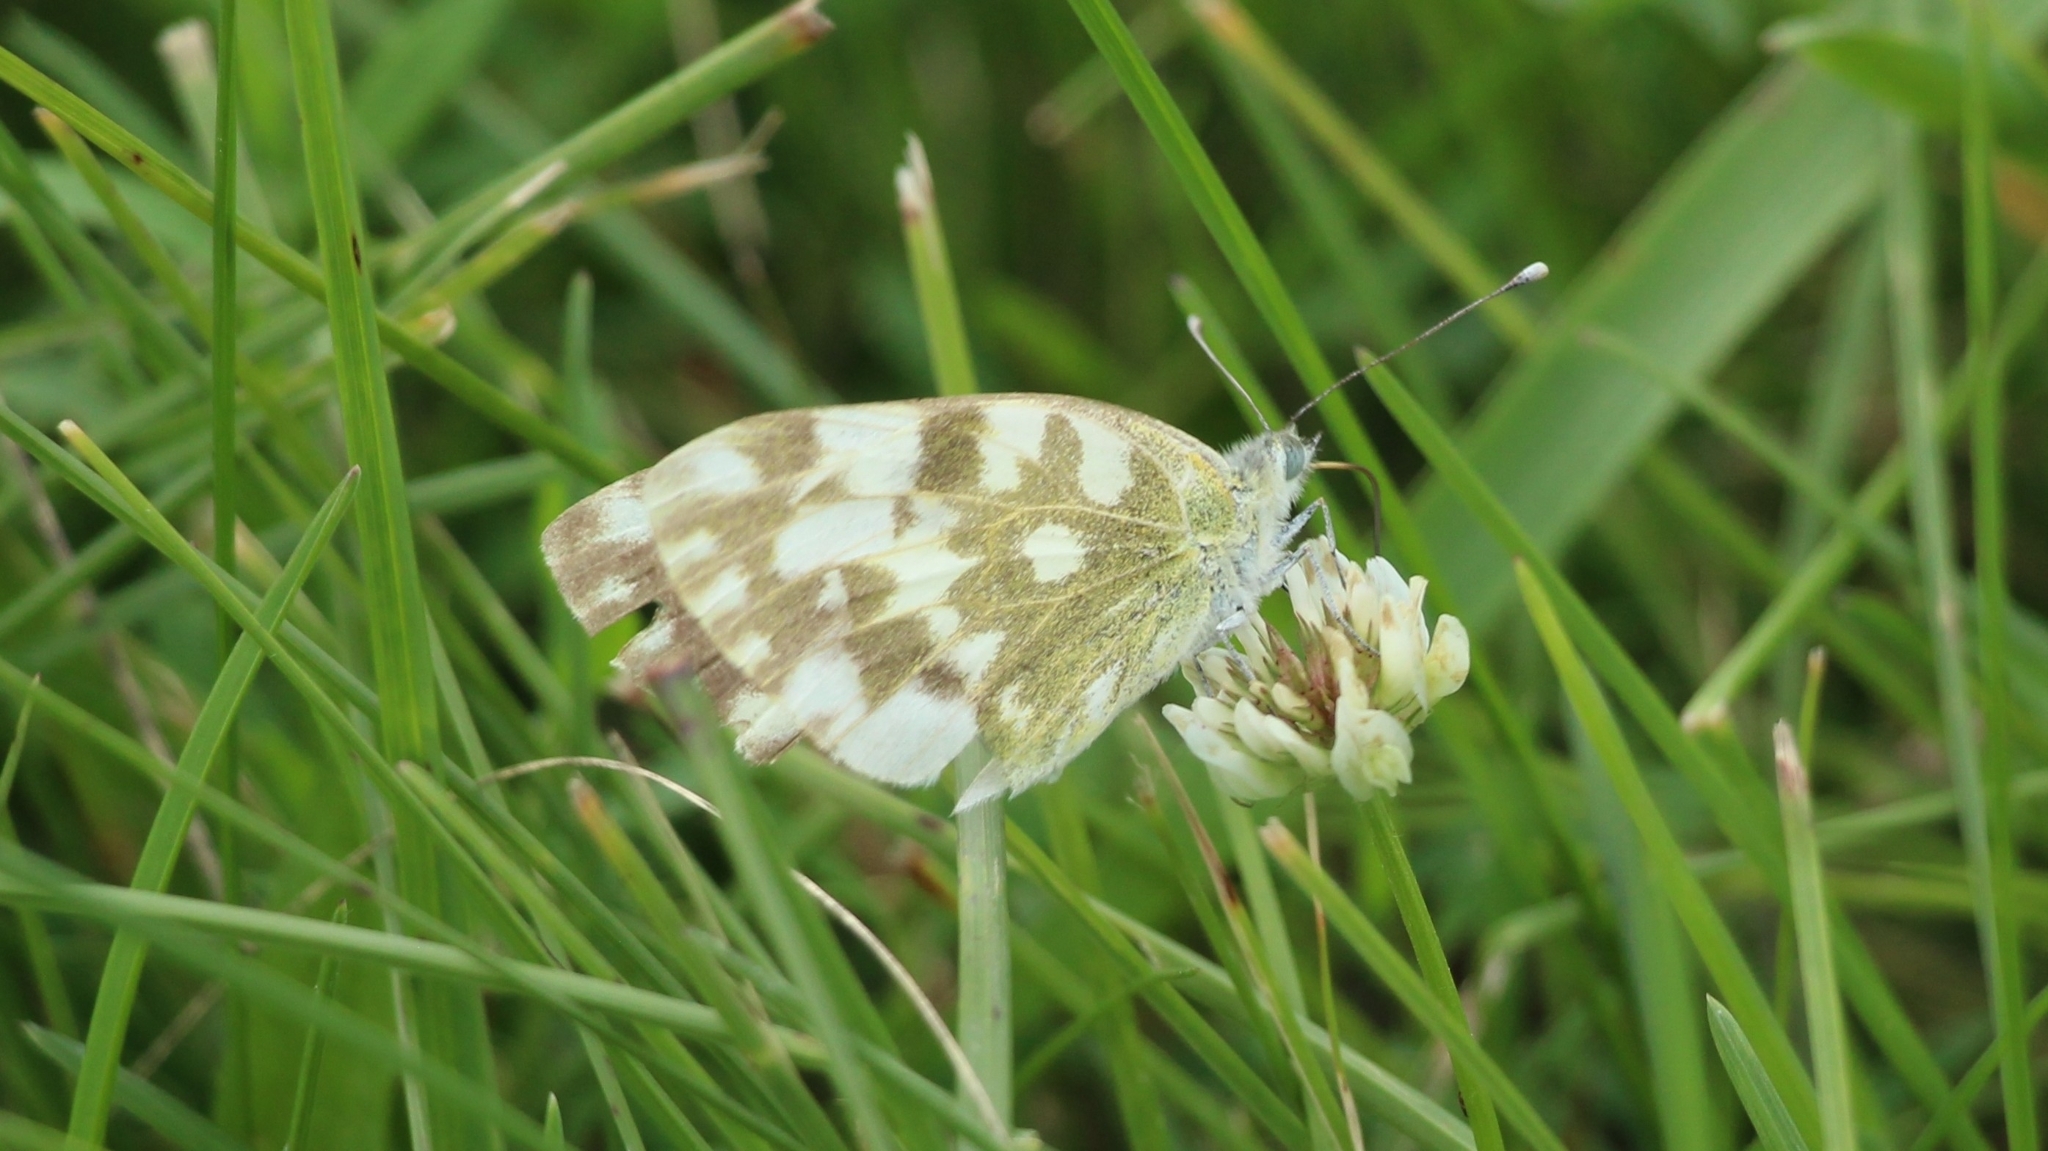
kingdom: Animalia
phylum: Arthropoda
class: Insecta
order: Lepidoptera
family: Pieridae
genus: Pontia
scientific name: Pontia edusa
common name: Eastern bath white
